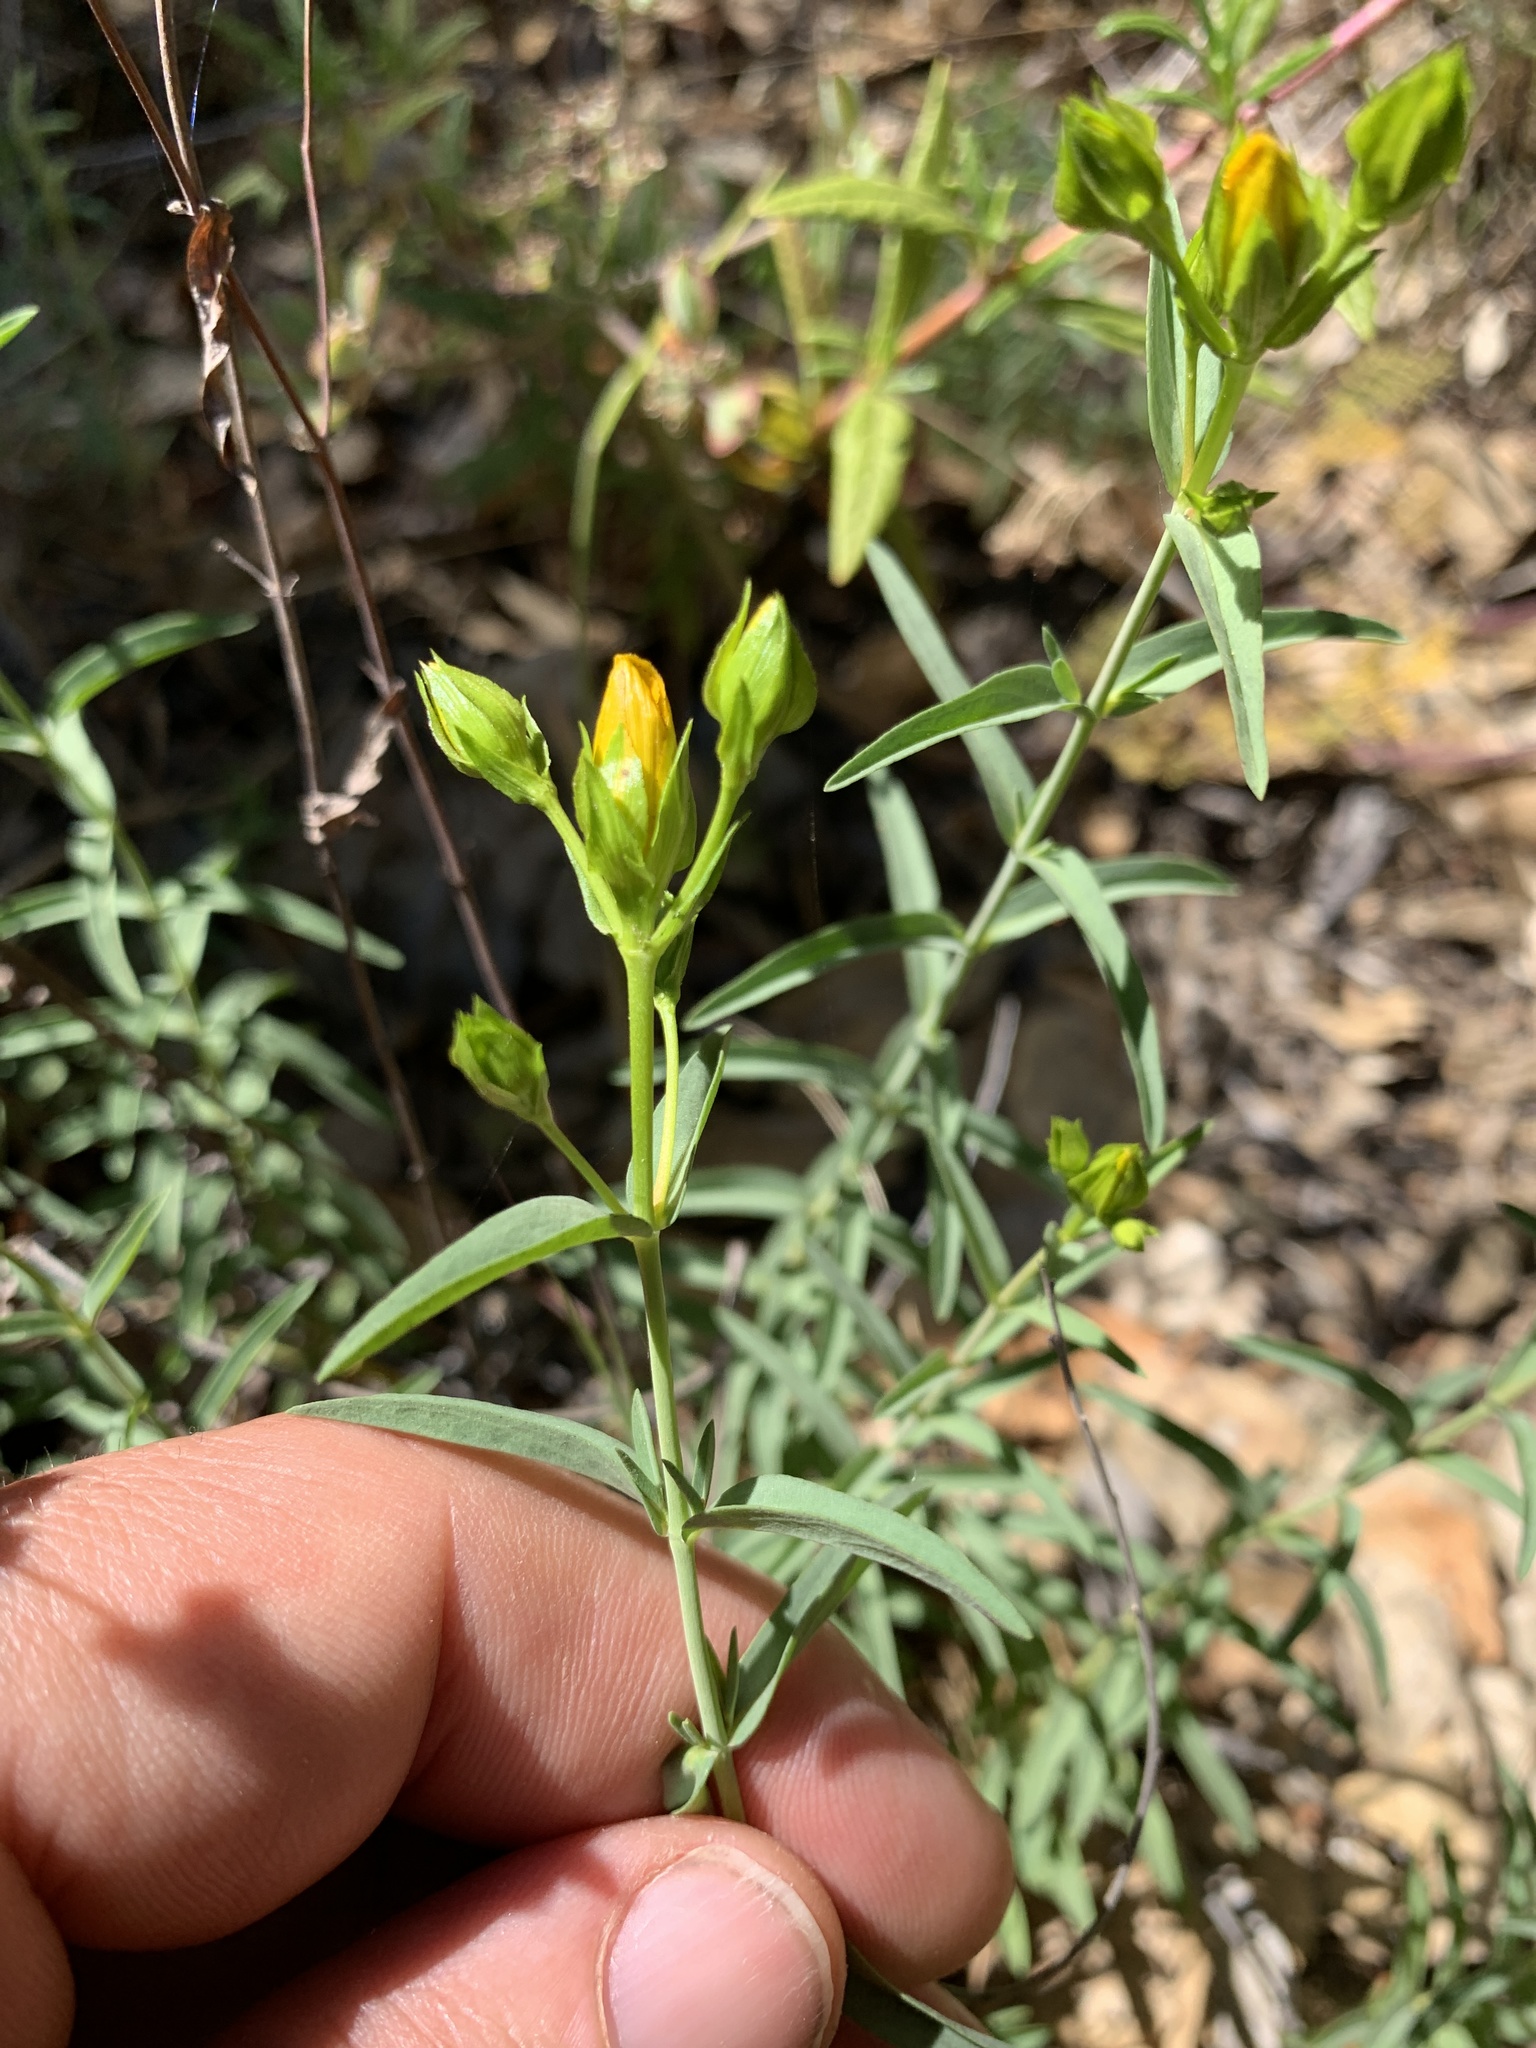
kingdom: Plantae
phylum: Tracheophyta
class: Magnoliopsida
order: Malpighiales
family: Hypericaceae
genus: Hypericum
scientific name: Hypericum concinnum
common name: Gold-wire
